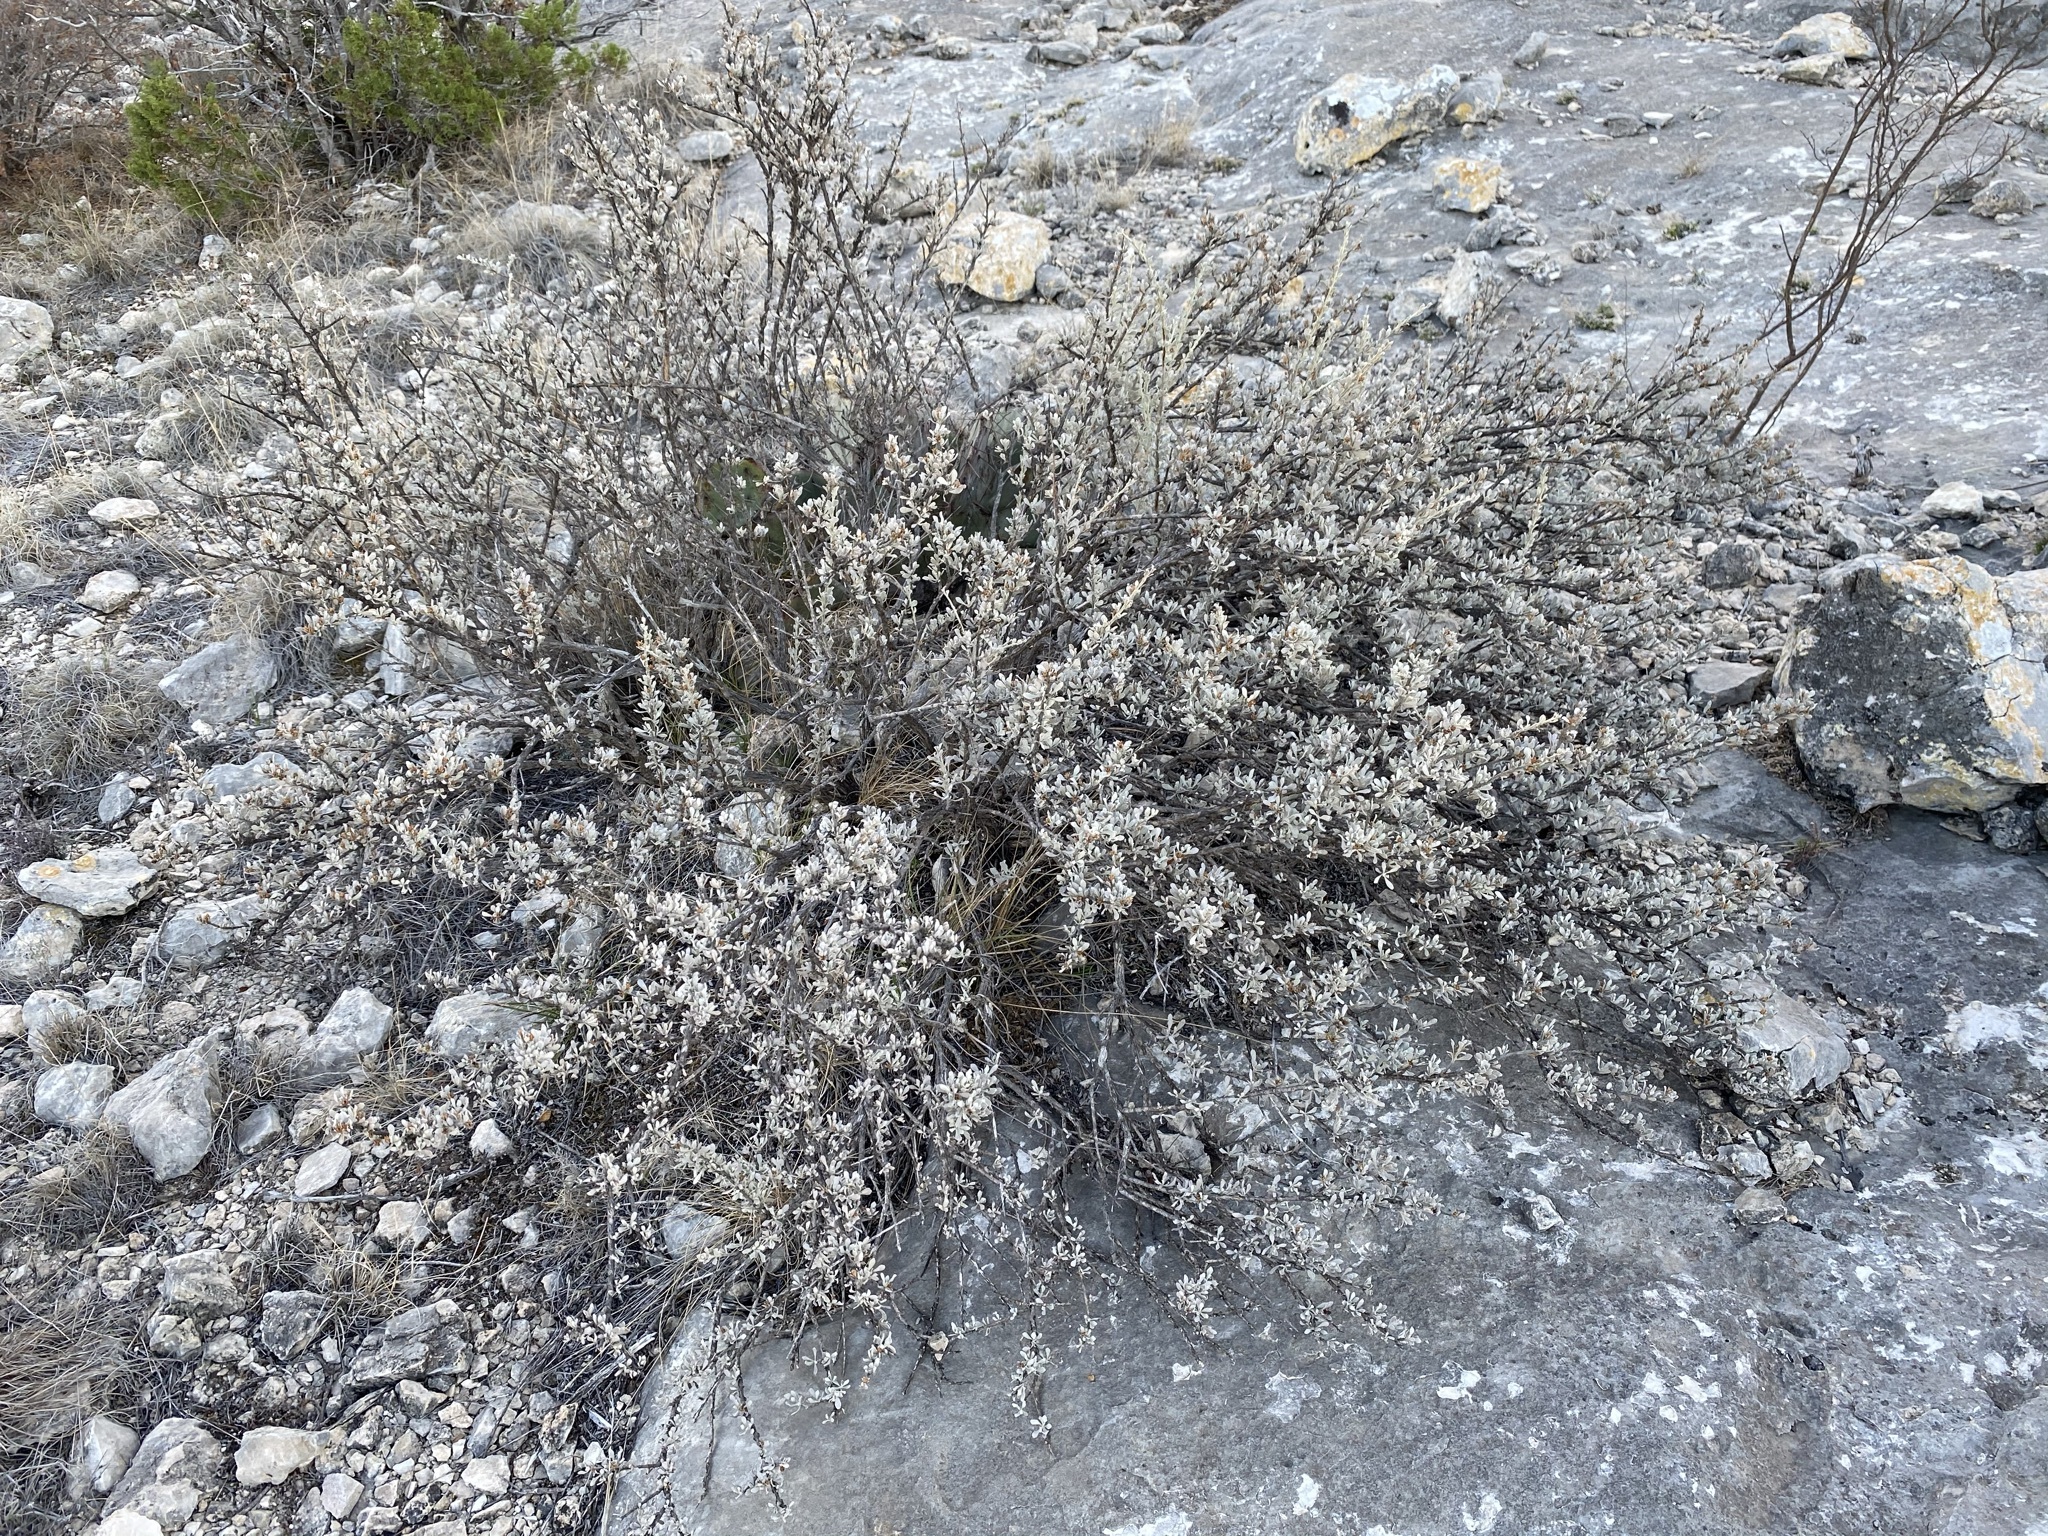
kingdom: Plantae
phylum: Tracheophyta
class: Magnoliopsida
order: Lamiales
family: Scrophulariaceae
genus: Leucophyllum
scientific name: Leucophyllum minus
